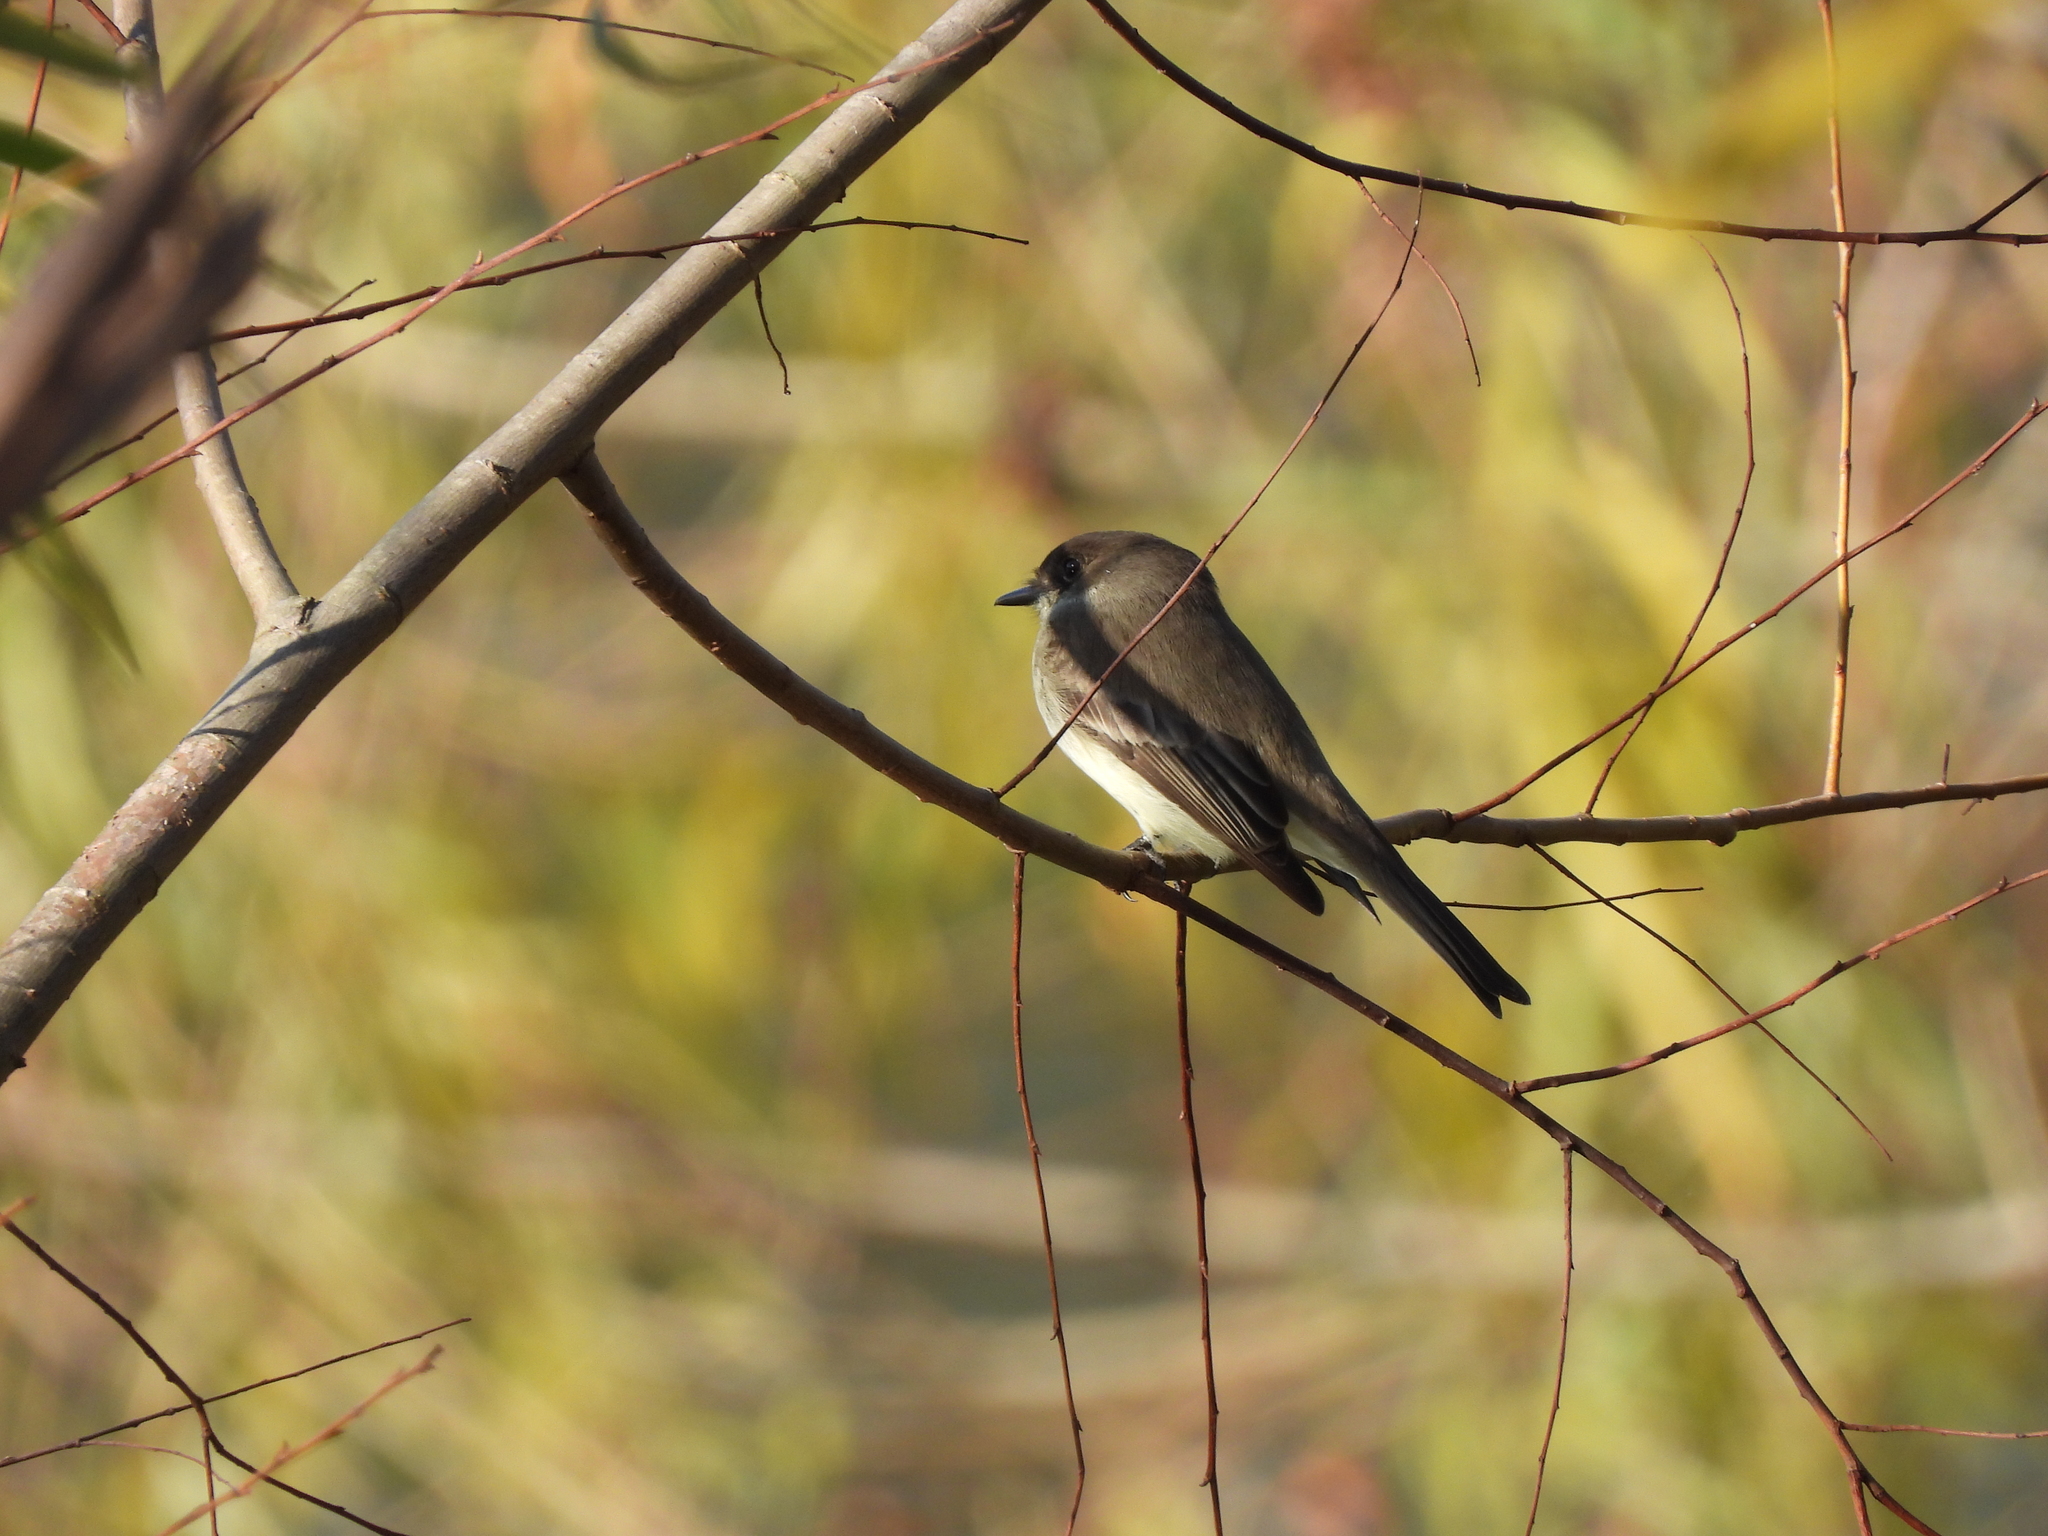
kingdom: Animalia
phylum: Chordata
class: Aves
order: Passeriformes
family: Tyrannidae
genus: Sayornis
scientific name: Sayornis phoebe
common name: Eastern phoebe
